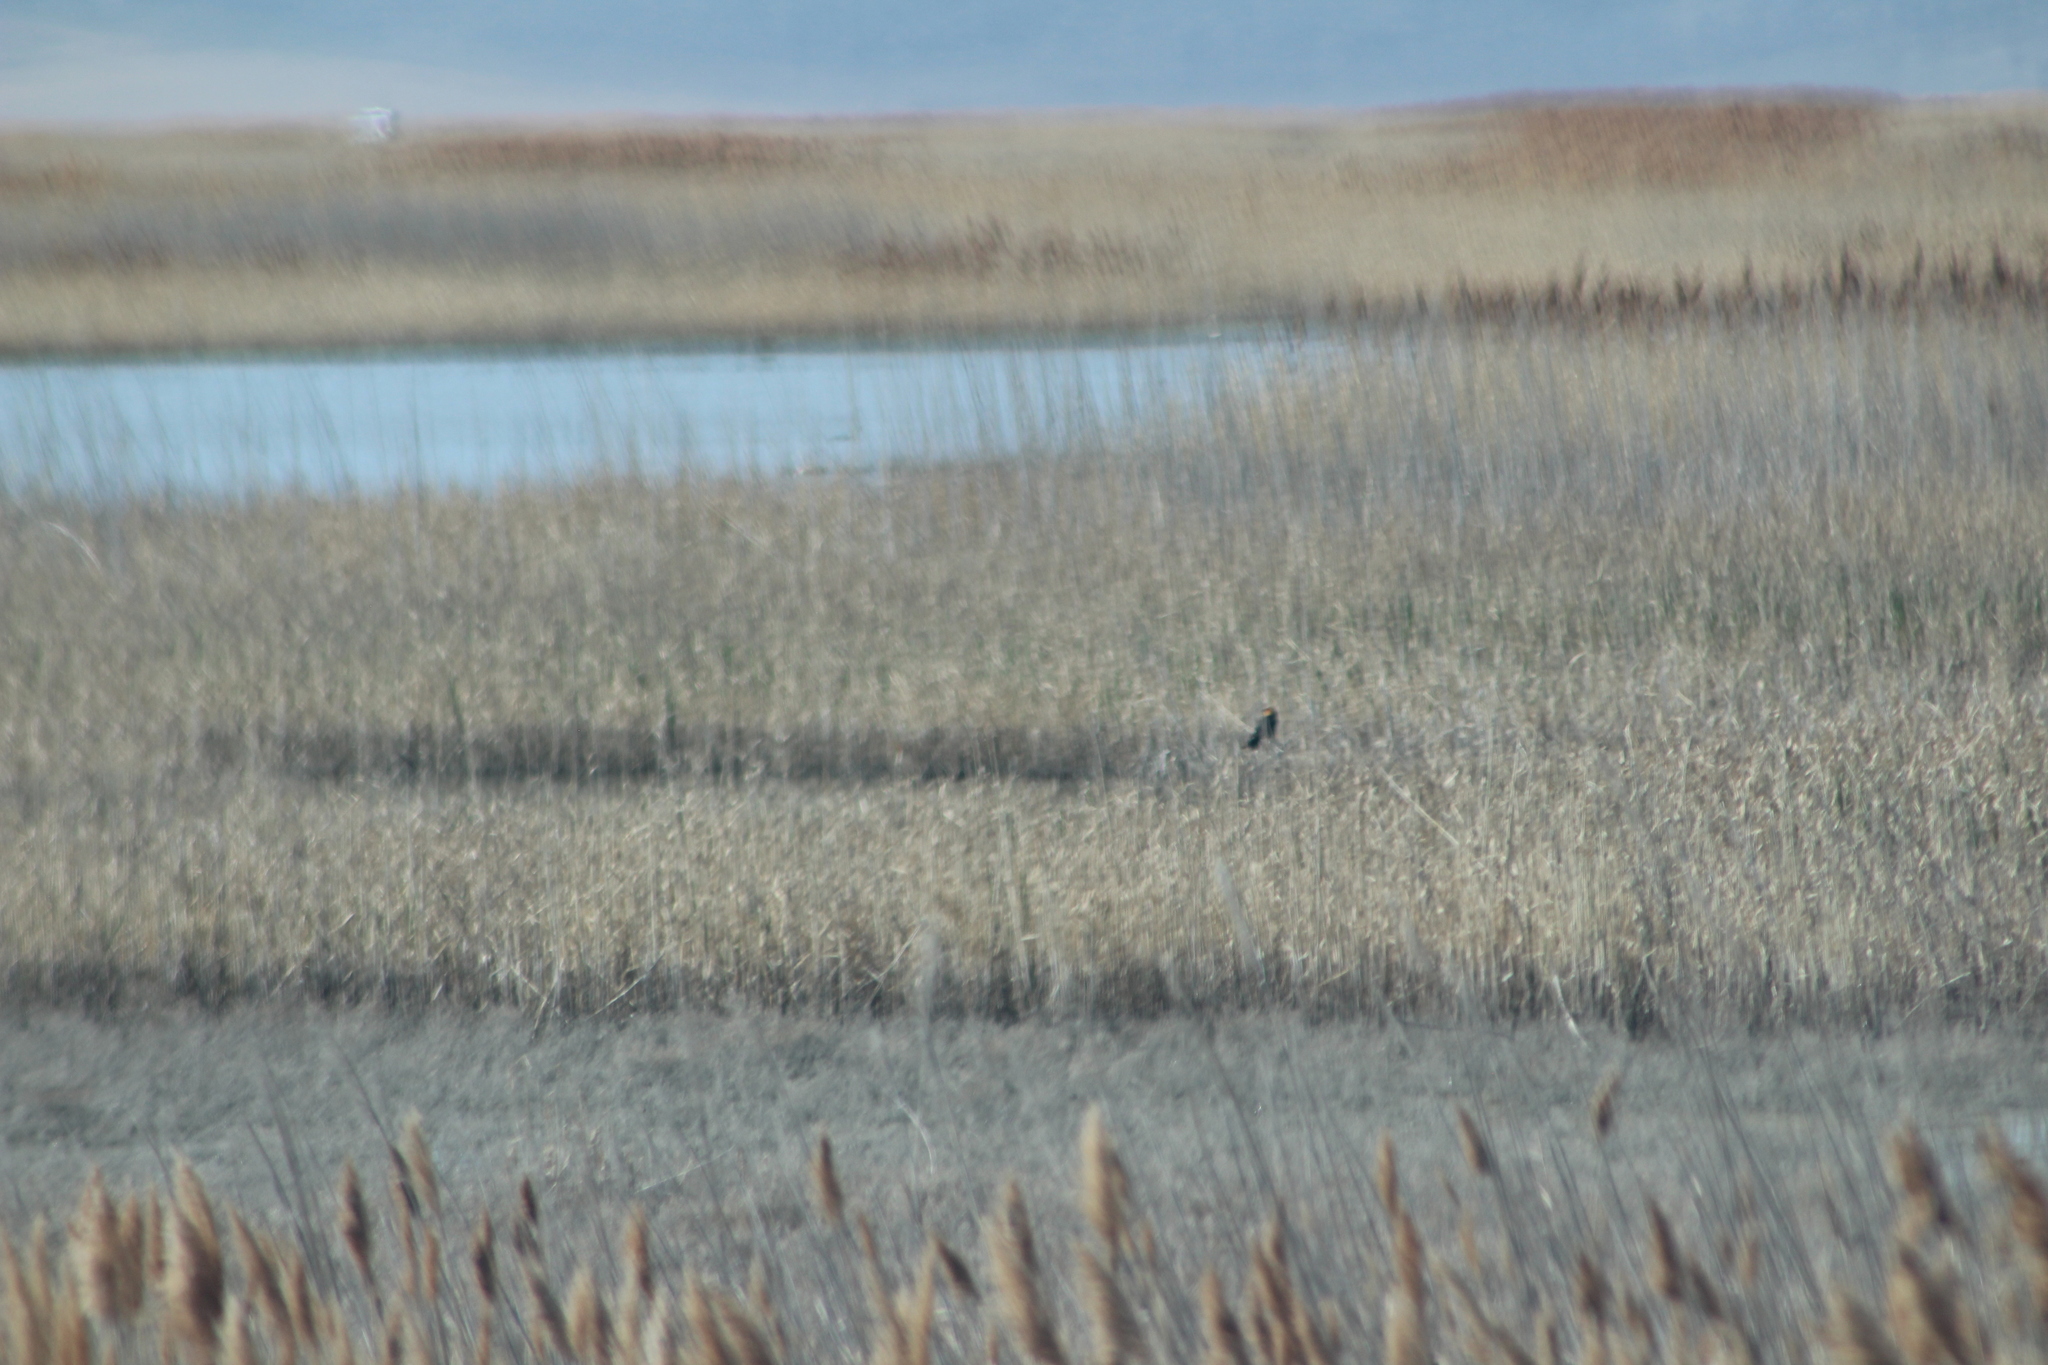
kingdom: Animalia
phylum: Chordata
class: Aves
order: Passeriformes
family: Icteridae
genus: Xanthocephalus
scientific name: Xanthocephalus xanthocephalus
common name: Yellow-headed blackbird
